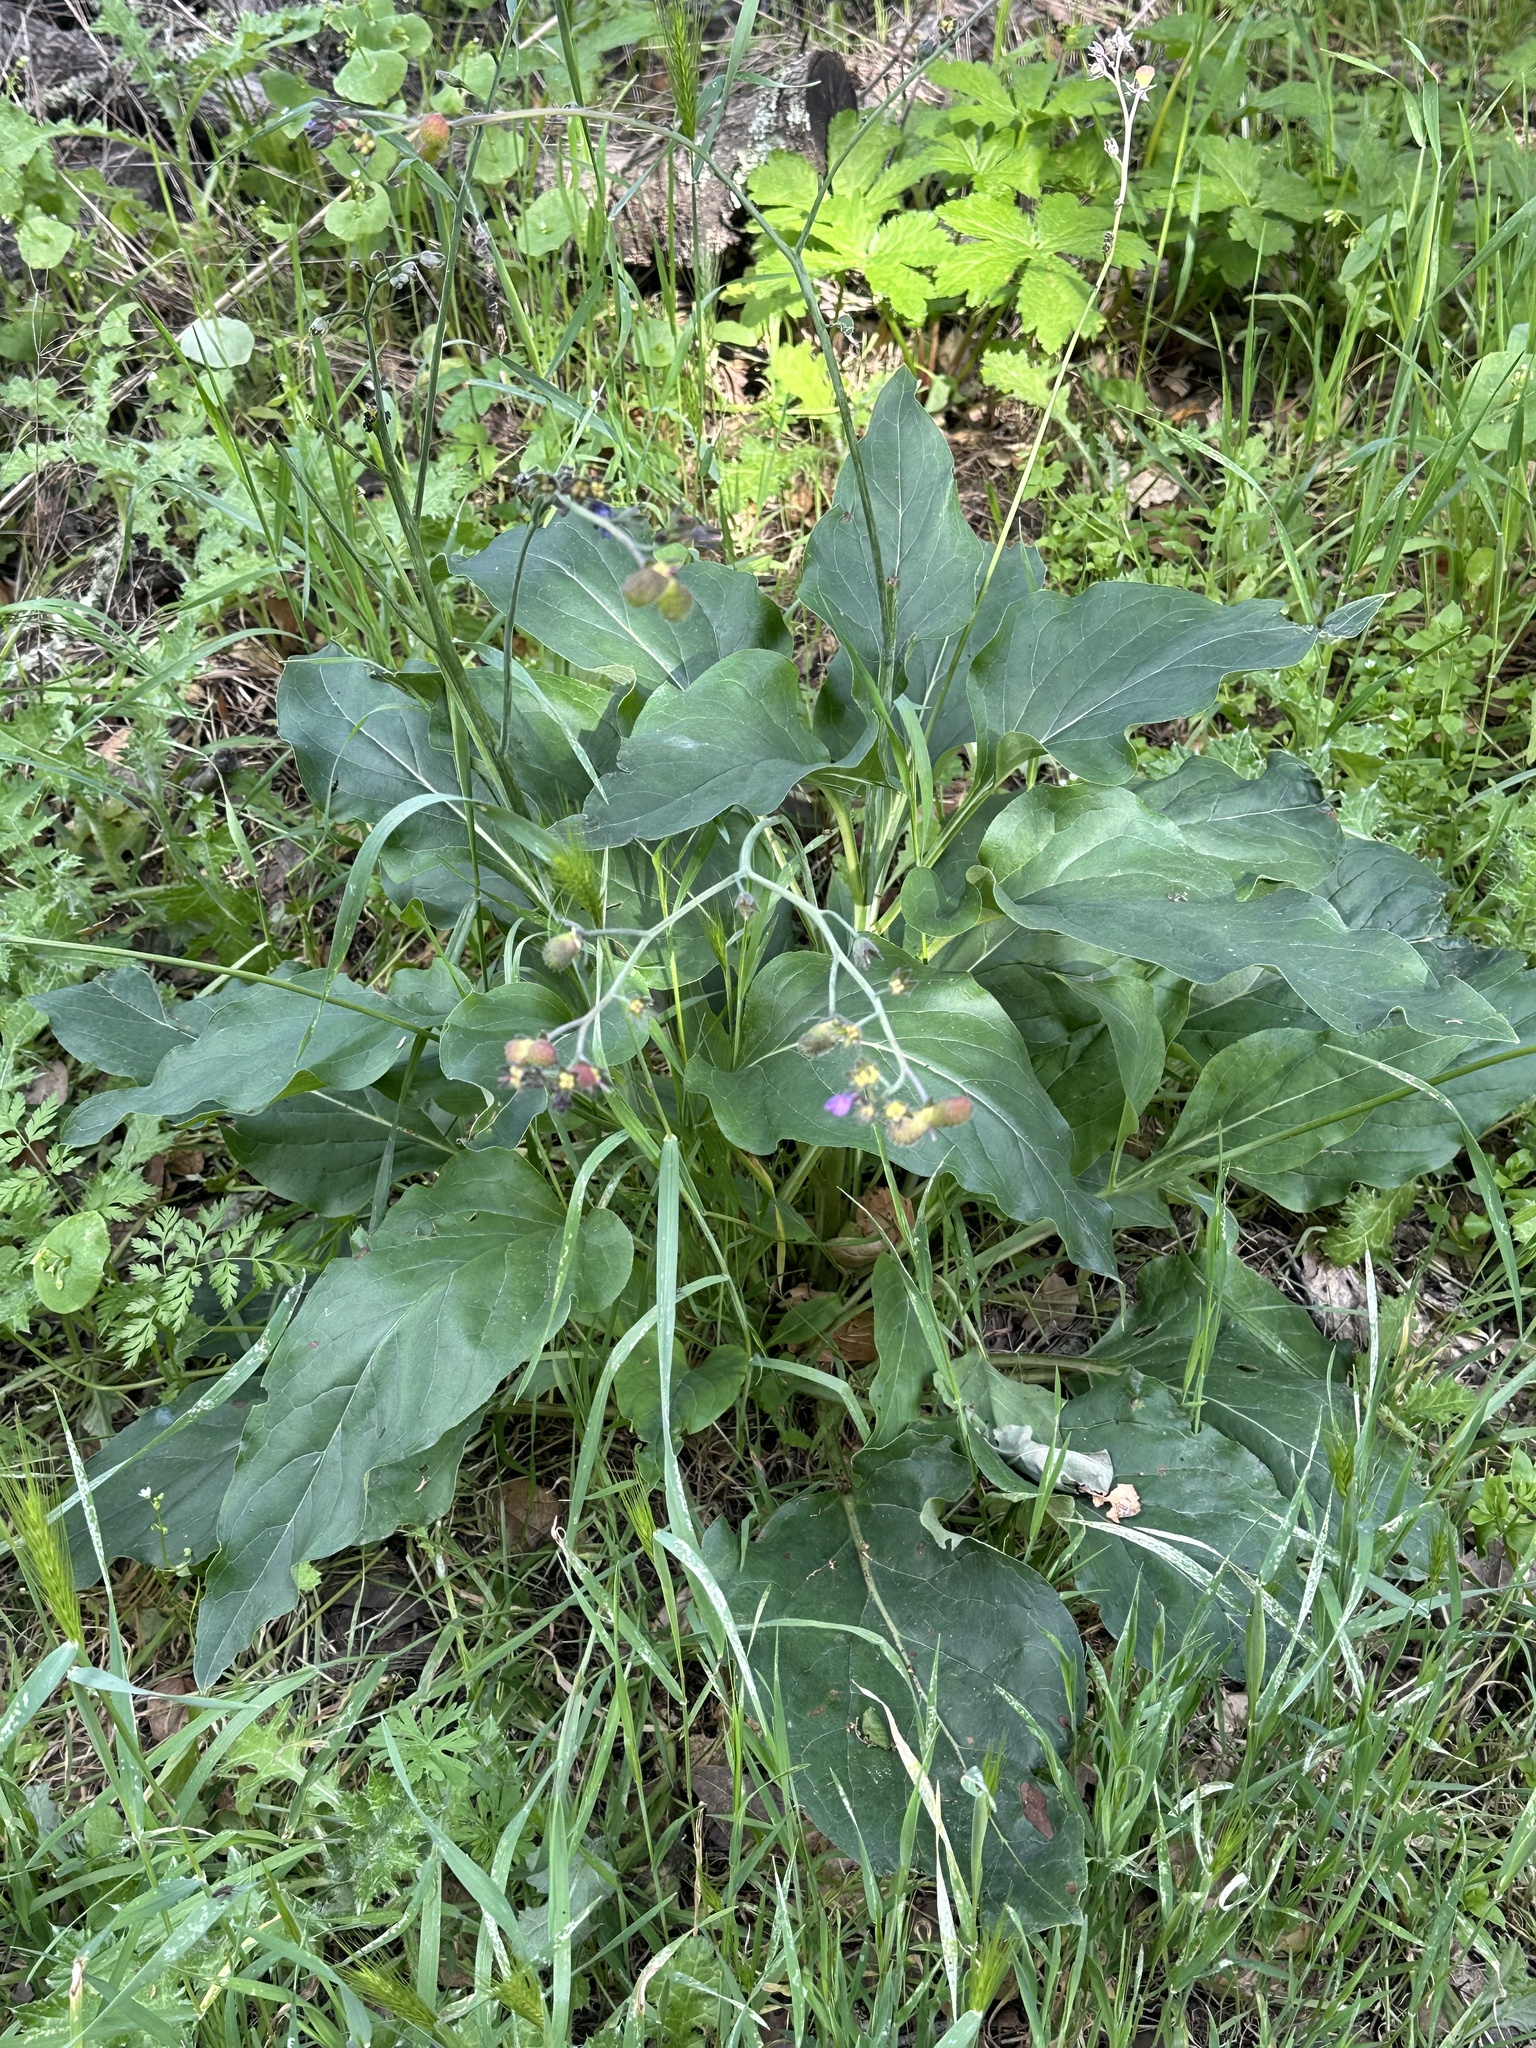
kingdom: Plantae
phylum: Tracheophyta
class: Magnoliopsida
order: Boraginales
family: Boraginaceae
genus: Adelinia
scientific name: Adelinia grande
